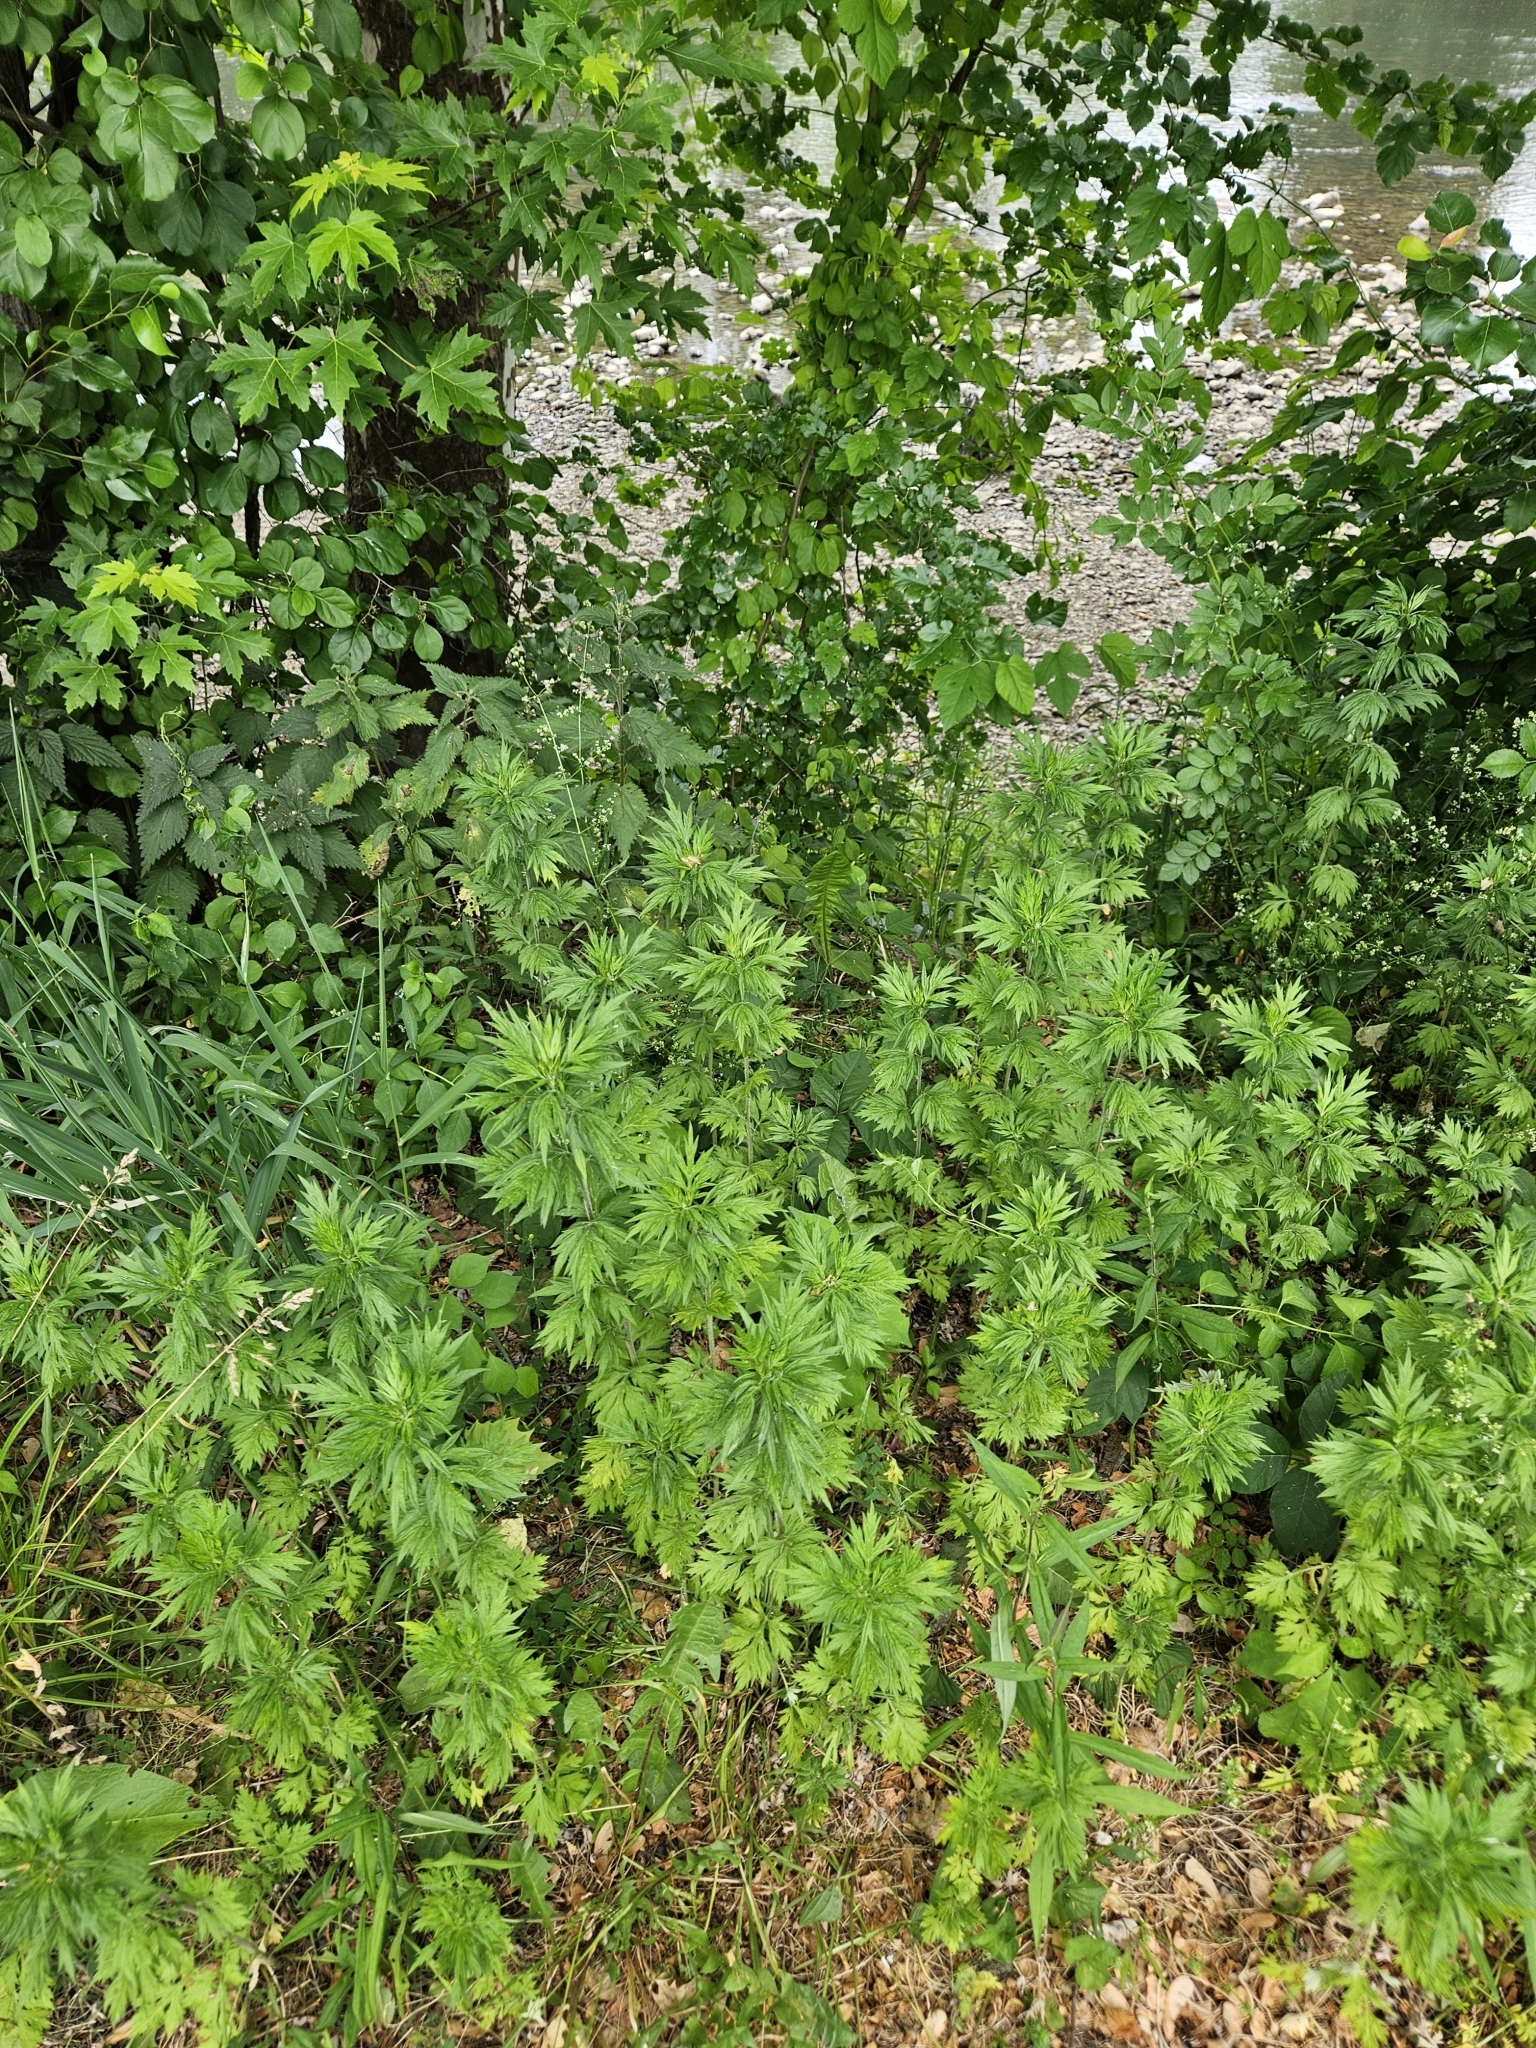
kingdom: Plantae
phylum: Tracheophyta
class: Magnoliopsida
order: Lamiales
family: Lamiaceae
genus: Leonurus
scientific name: Leonurus cardiaca
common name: Motherwort
